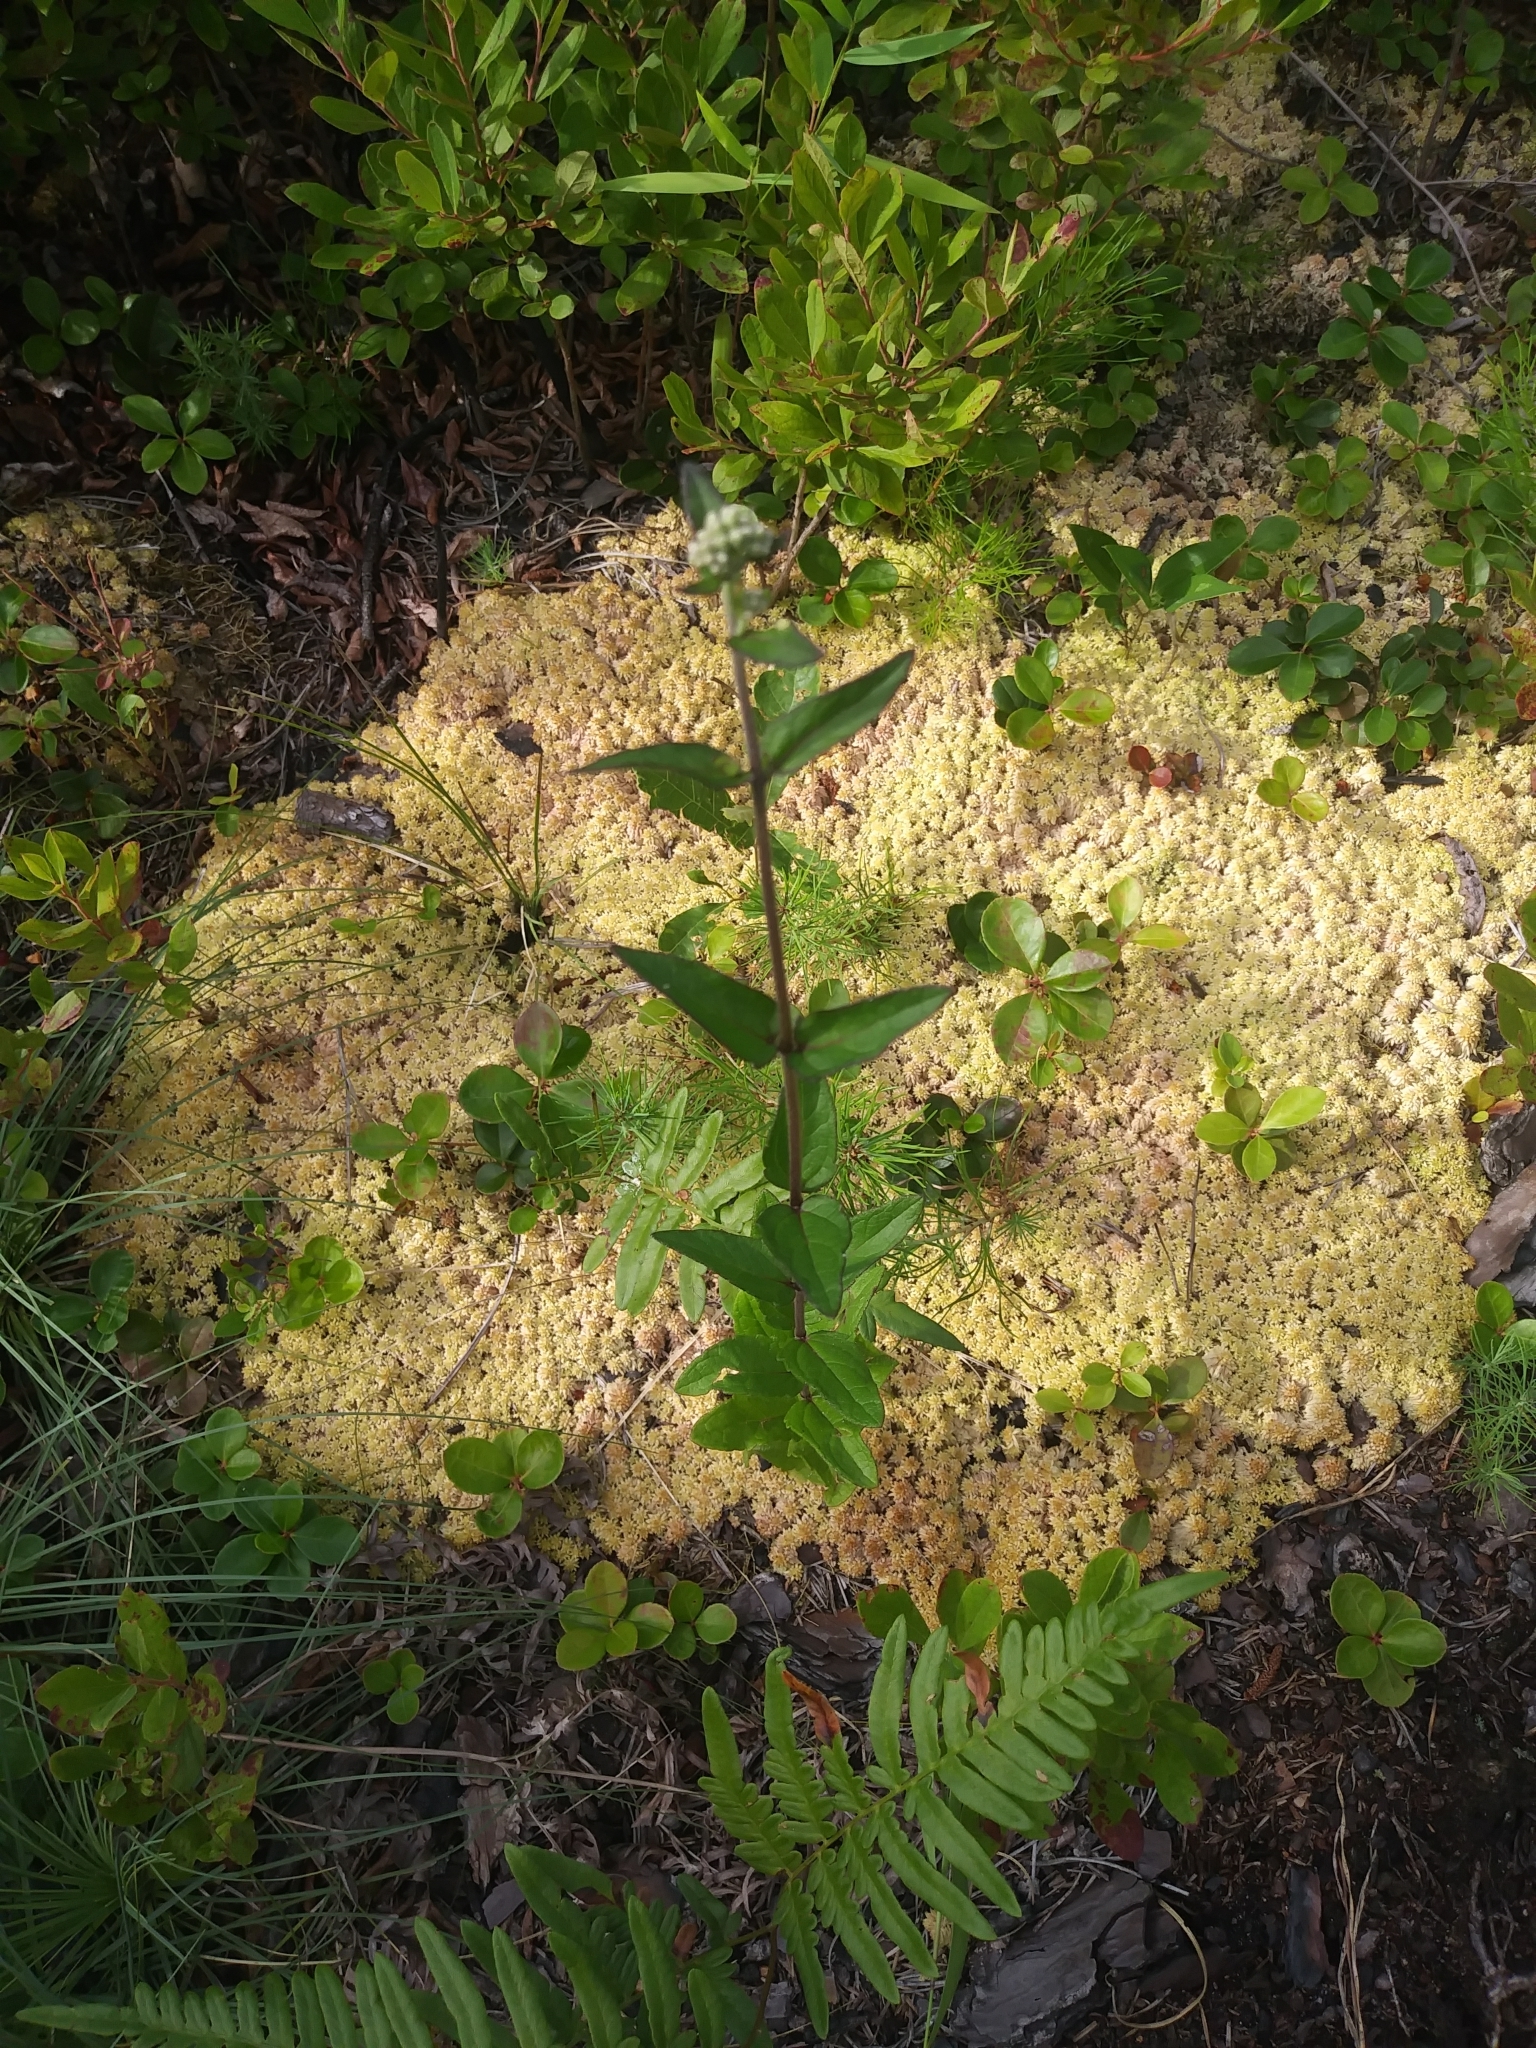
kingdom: Plantae
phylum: Tracheophyta
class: Magnoliopsida
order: Asterales
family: Asteraceae
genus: Eupatorium
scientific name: Eupatorium pilosum
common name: Rough boneset
